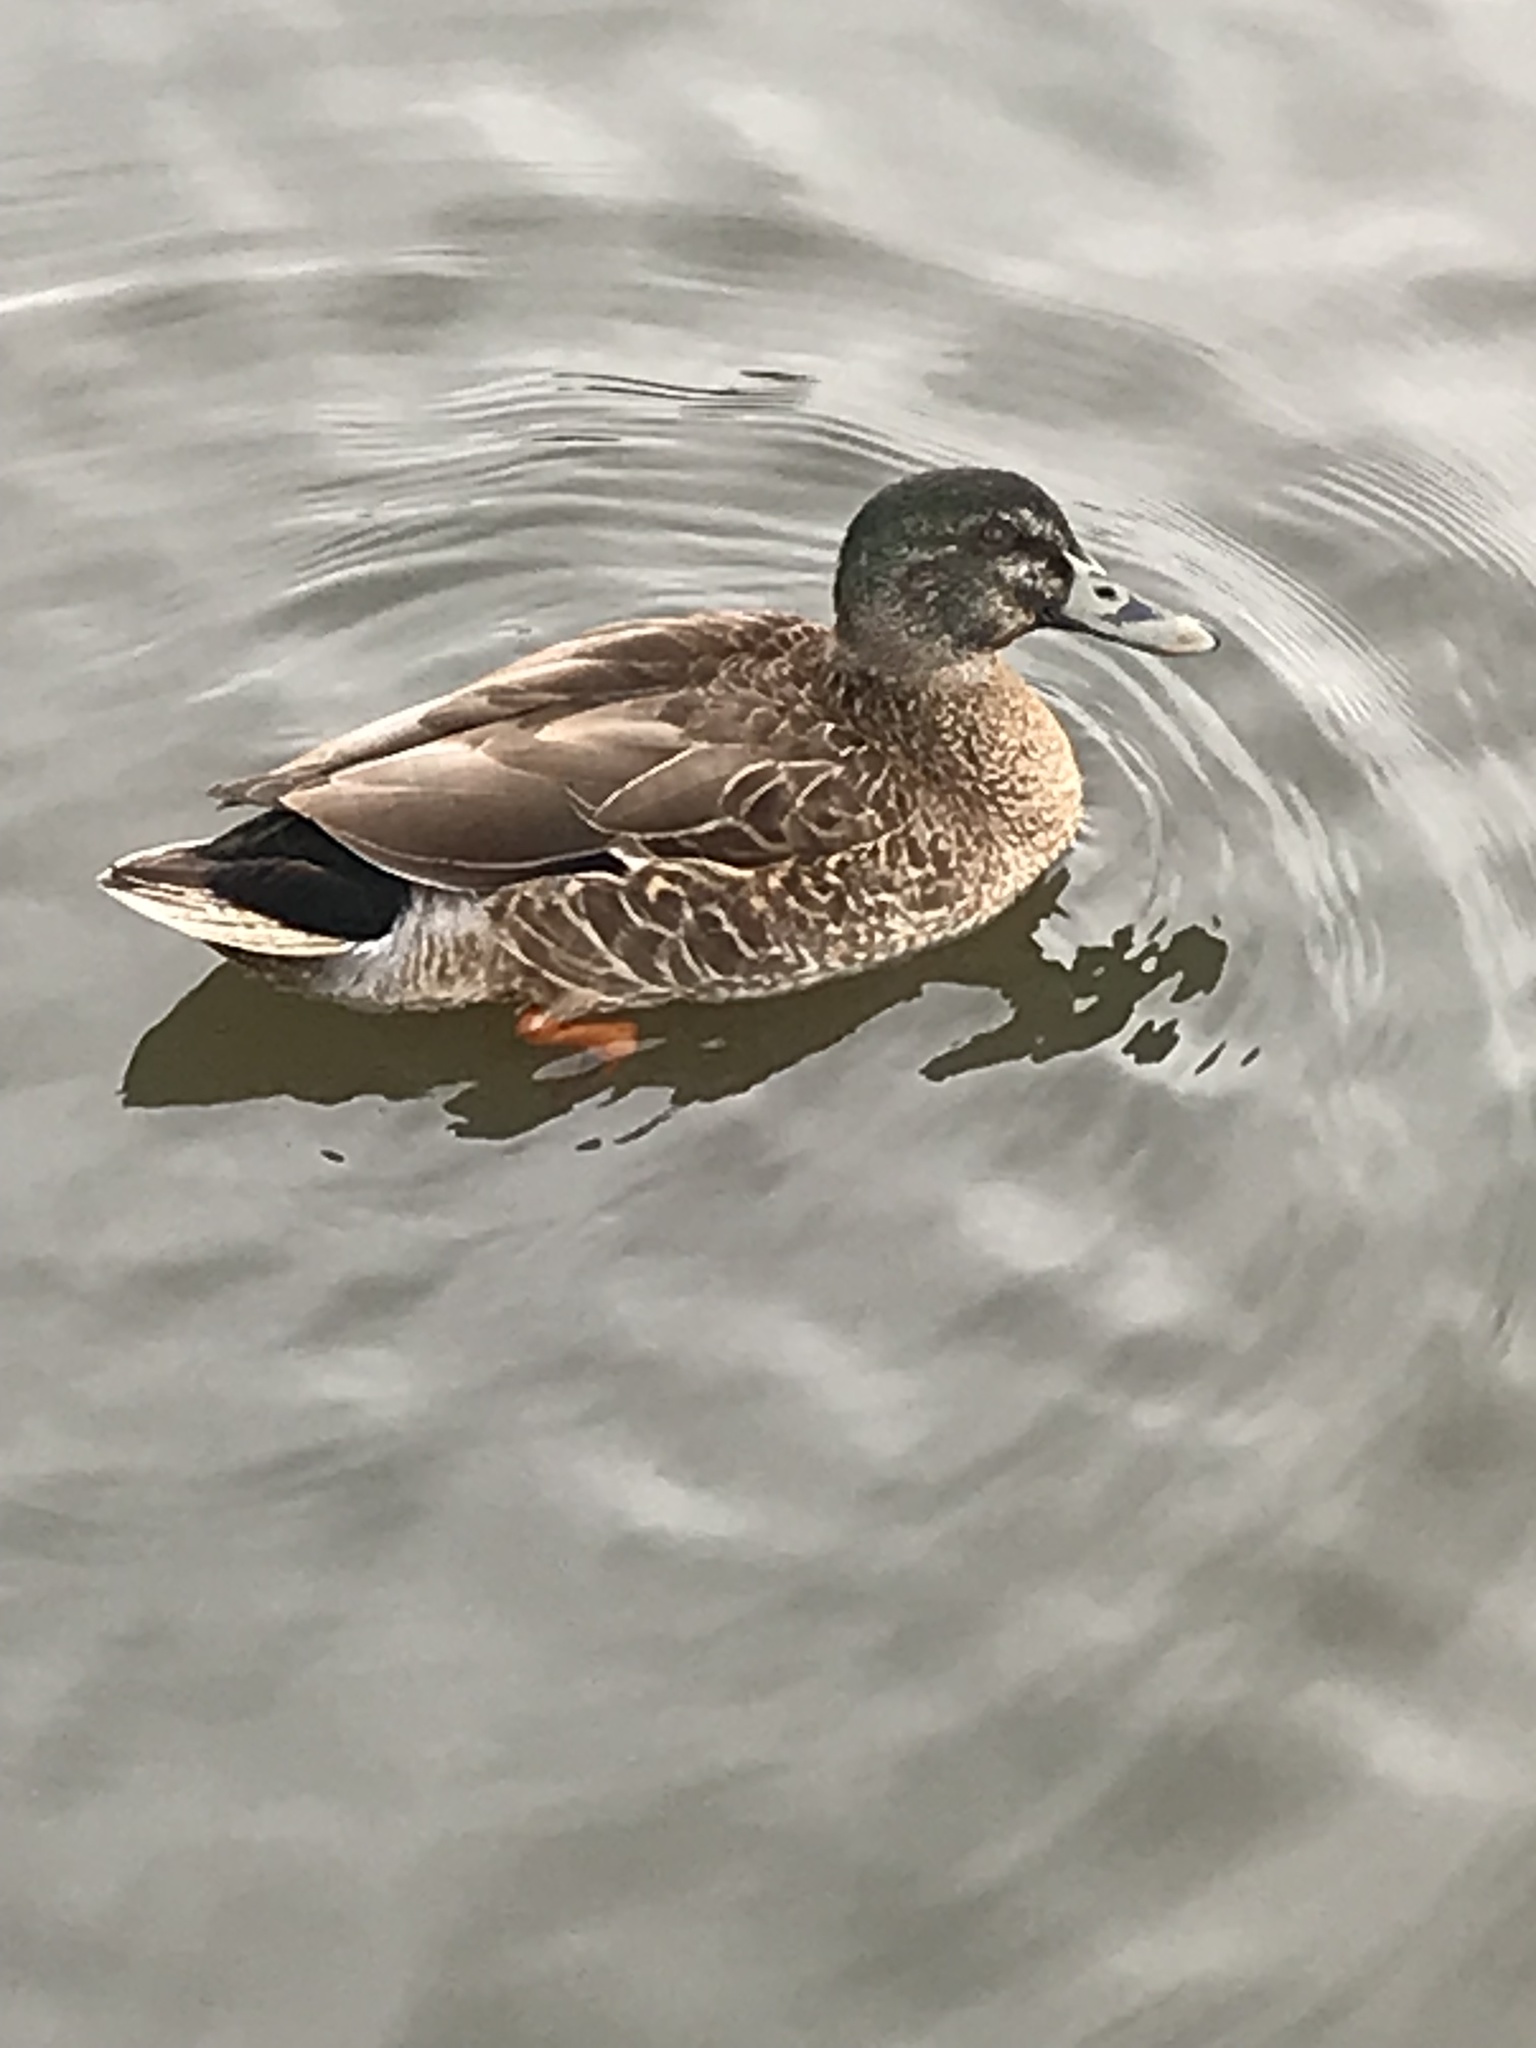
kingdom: Animalia
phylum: Chordata
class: Aves
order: Anseriformes
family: Anatidae
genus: Anas
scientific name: Anas
